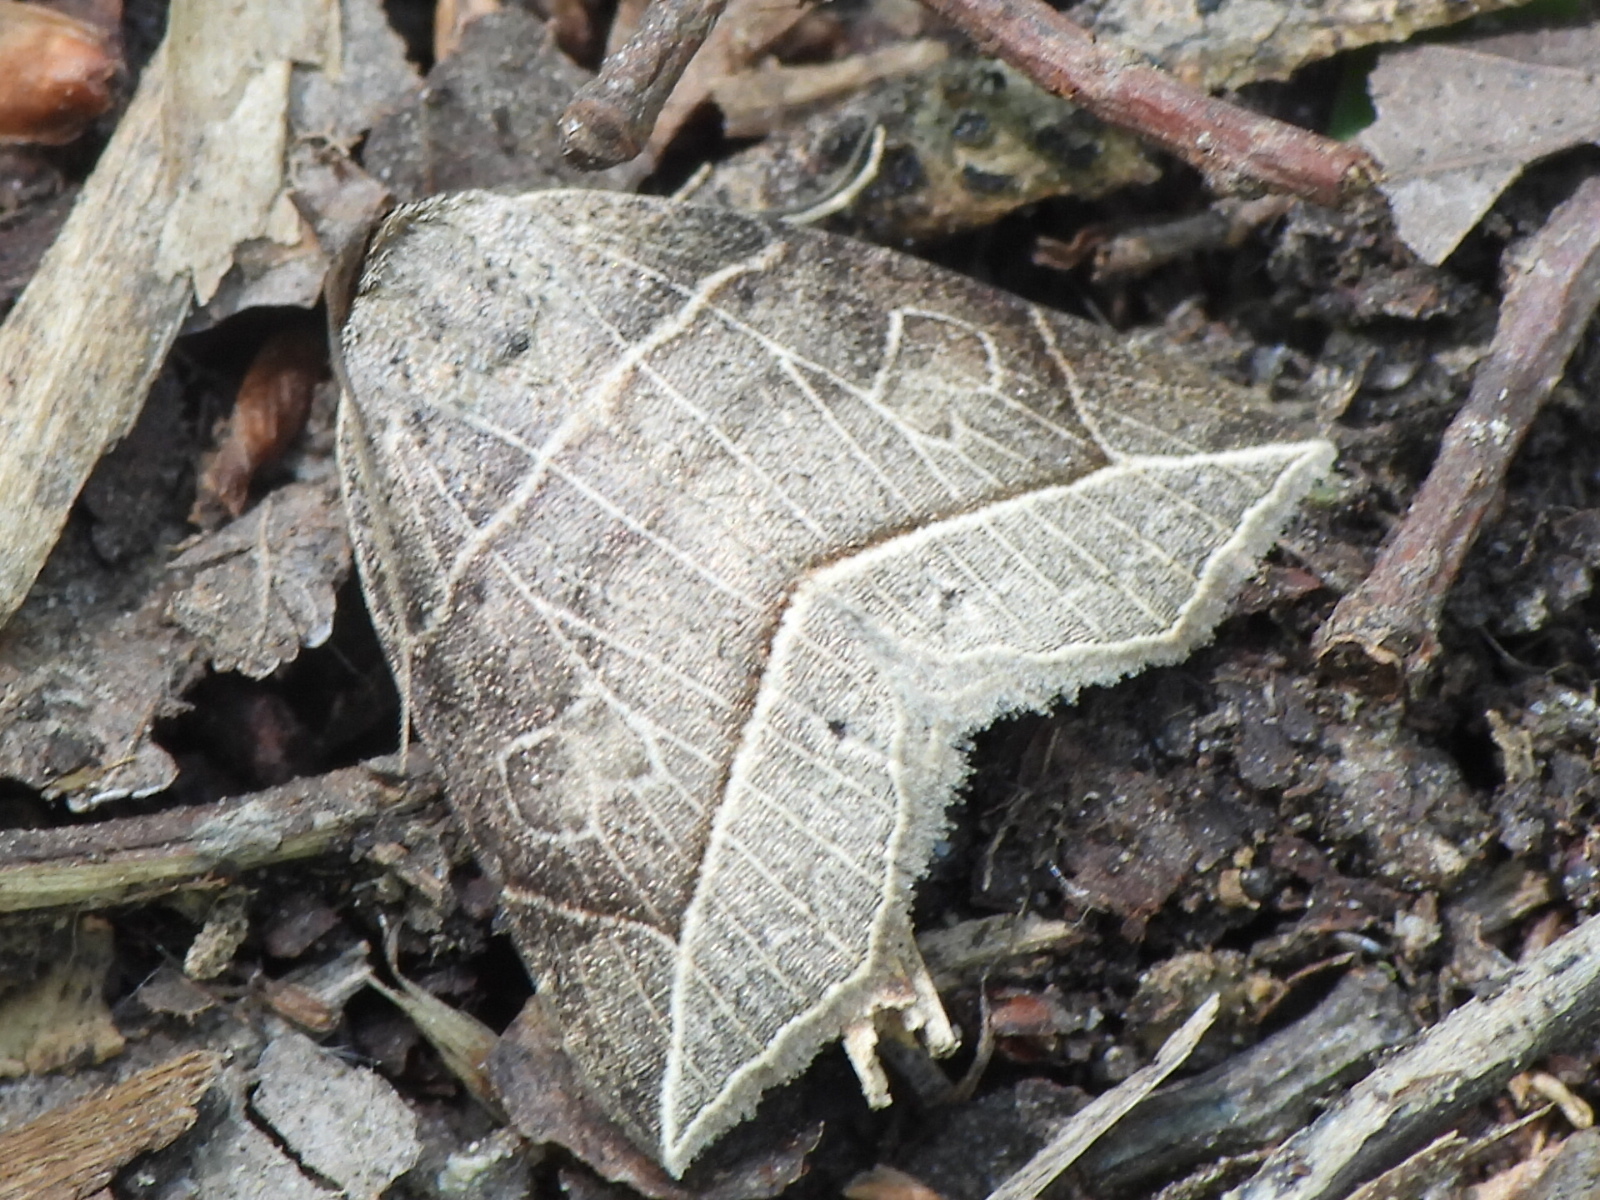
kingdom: Animalia
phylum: Arthropoda
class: Insecta
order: Lepidoptera
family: Erebidae
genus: Isogona
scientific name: Isogona tenuis
